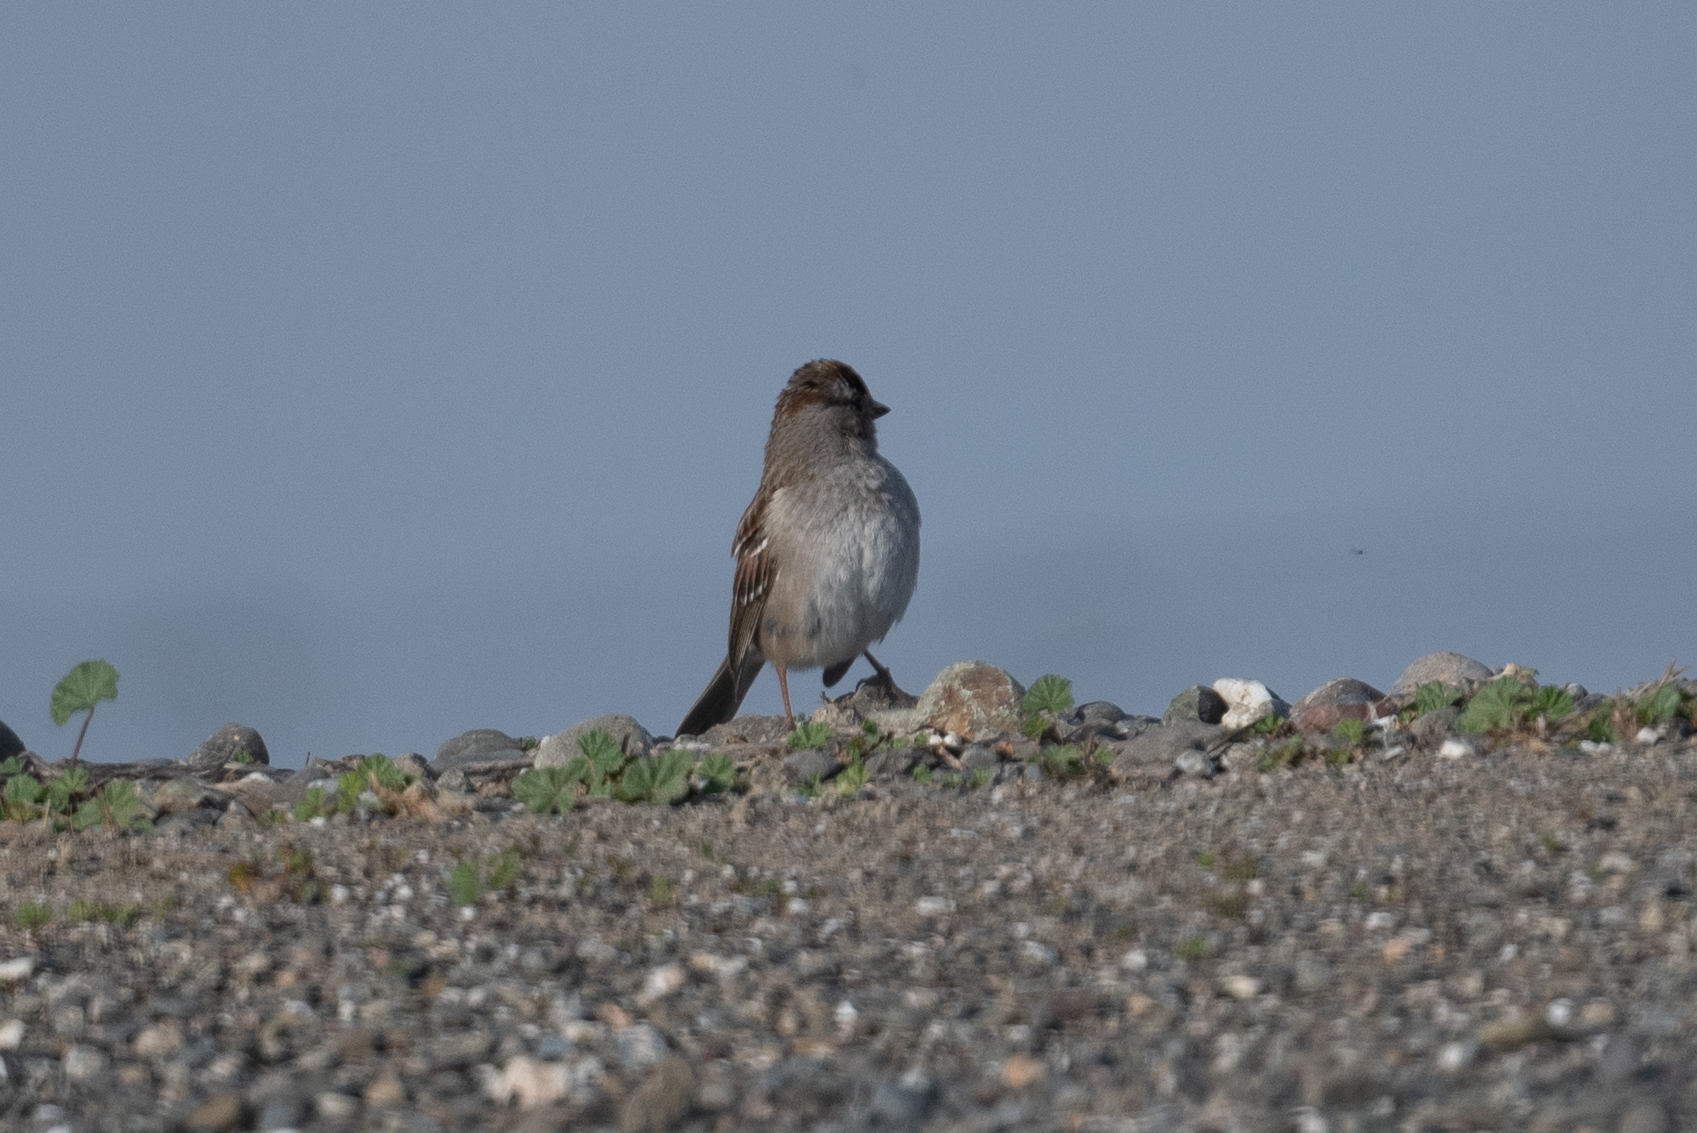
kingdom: Animalia
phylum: Chordata
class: Aves
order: Passeriformes
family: Passerellidae
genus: Zonotrichia
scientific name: Zonotrichia leucophrys
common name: White-crowned sparrow
